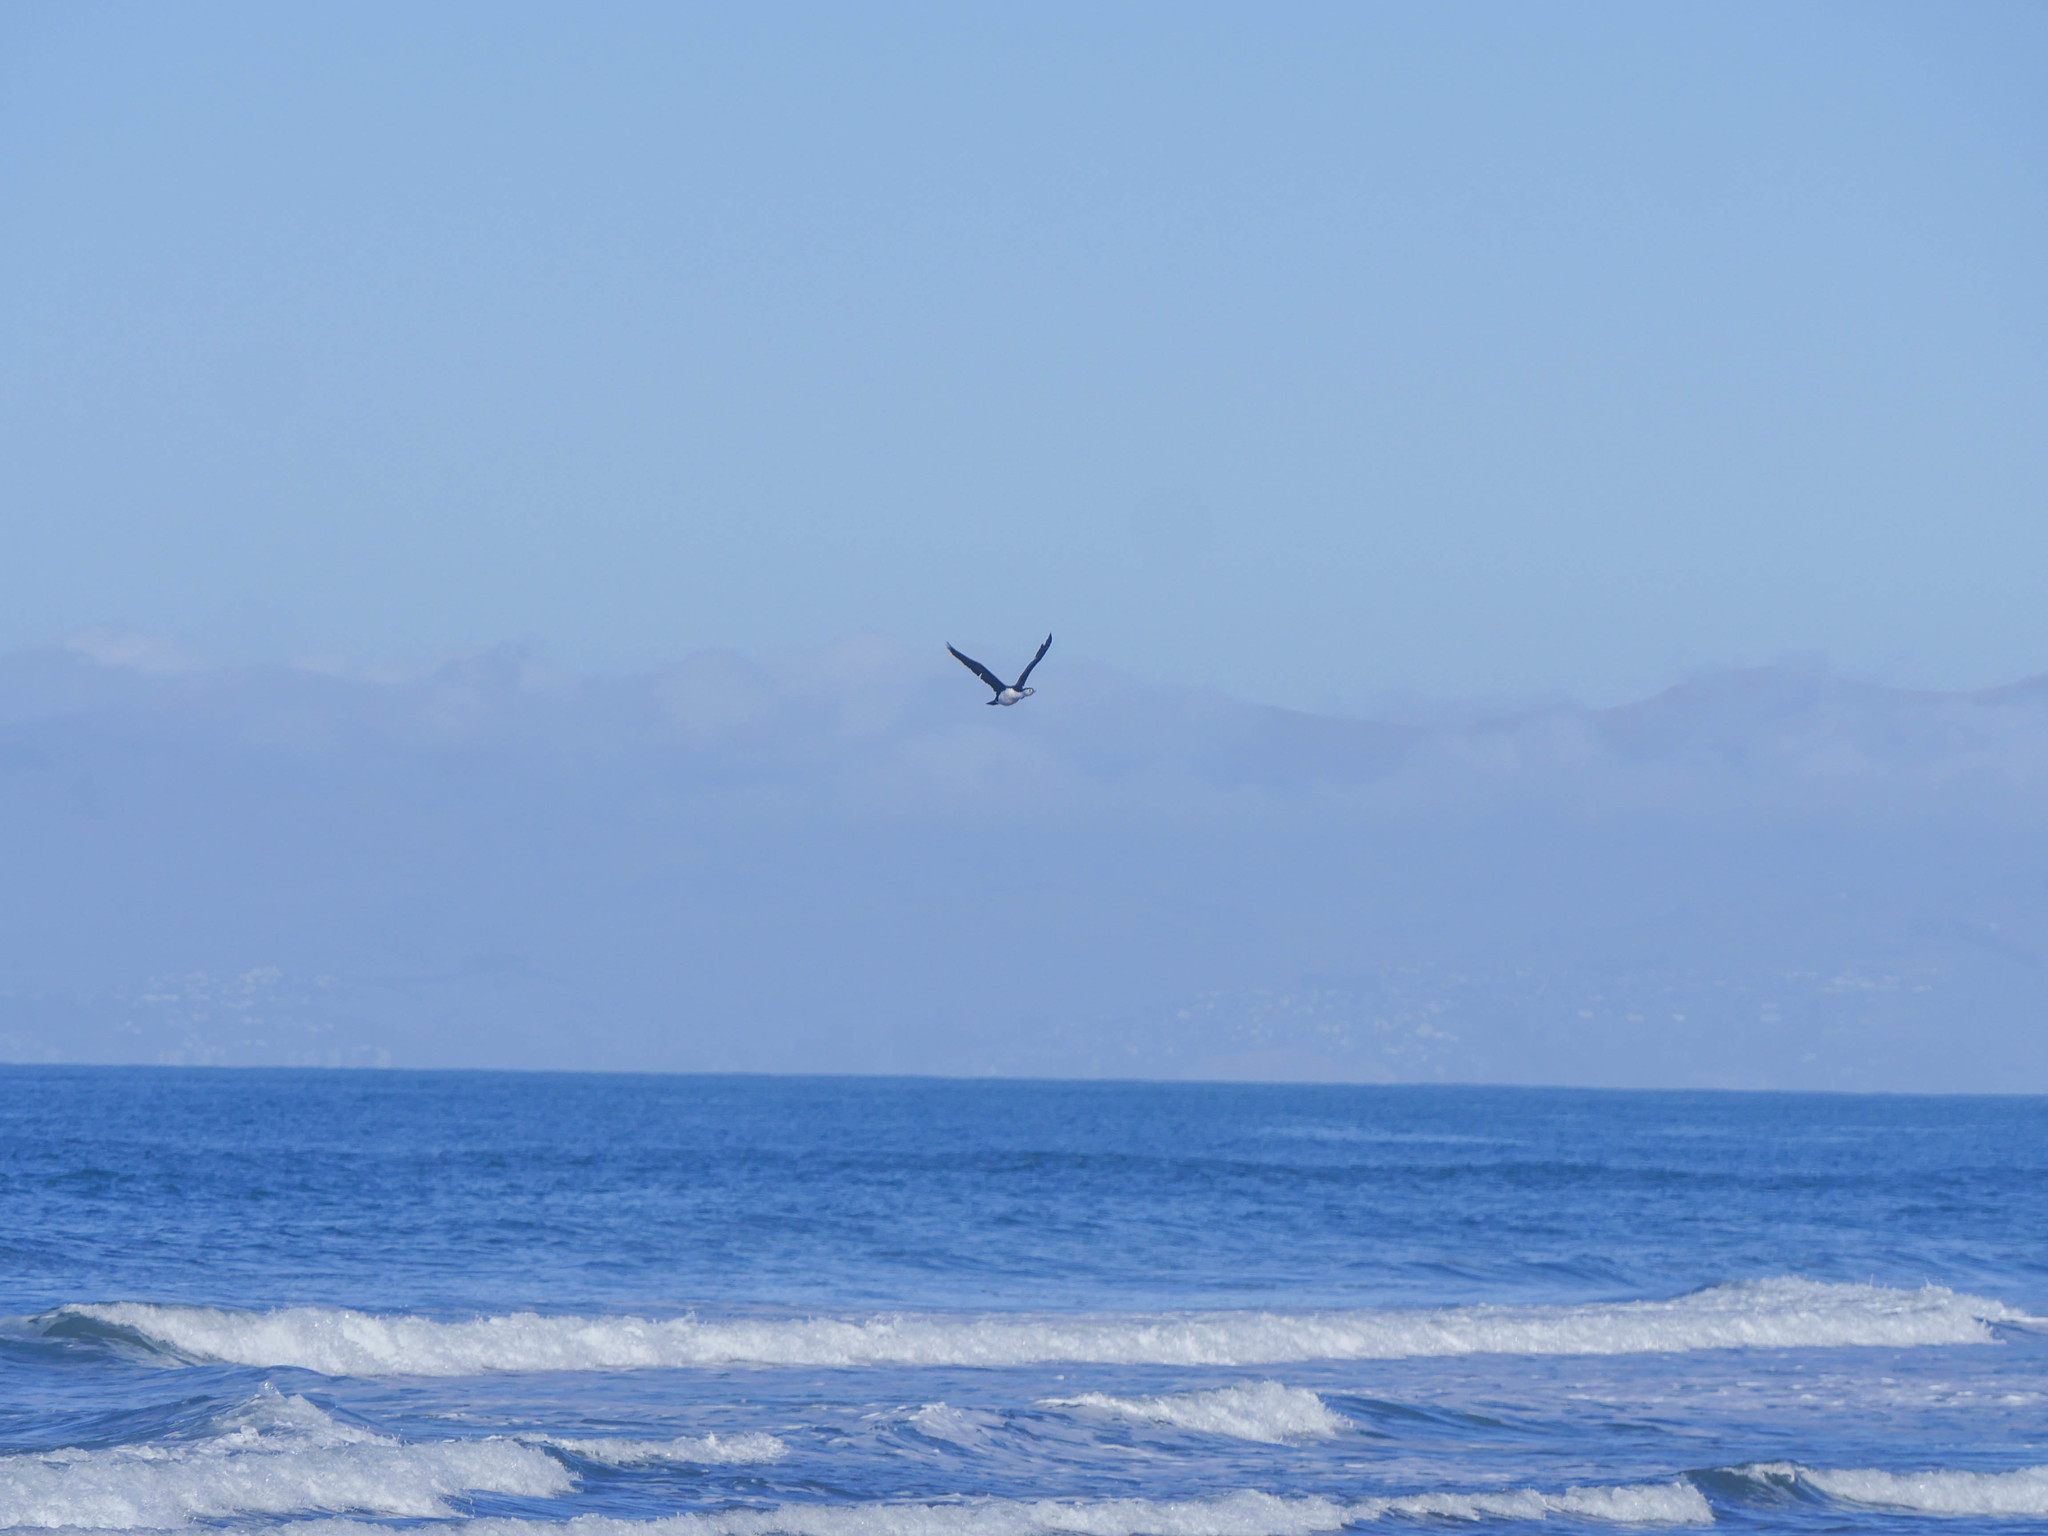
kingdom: Animalia
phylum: Chordata
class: Aves
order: Suliformes
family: Phalacrocoracidae
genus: Phalacrocorax
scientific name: Phalacrocorax varius
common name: Pied cormorant
